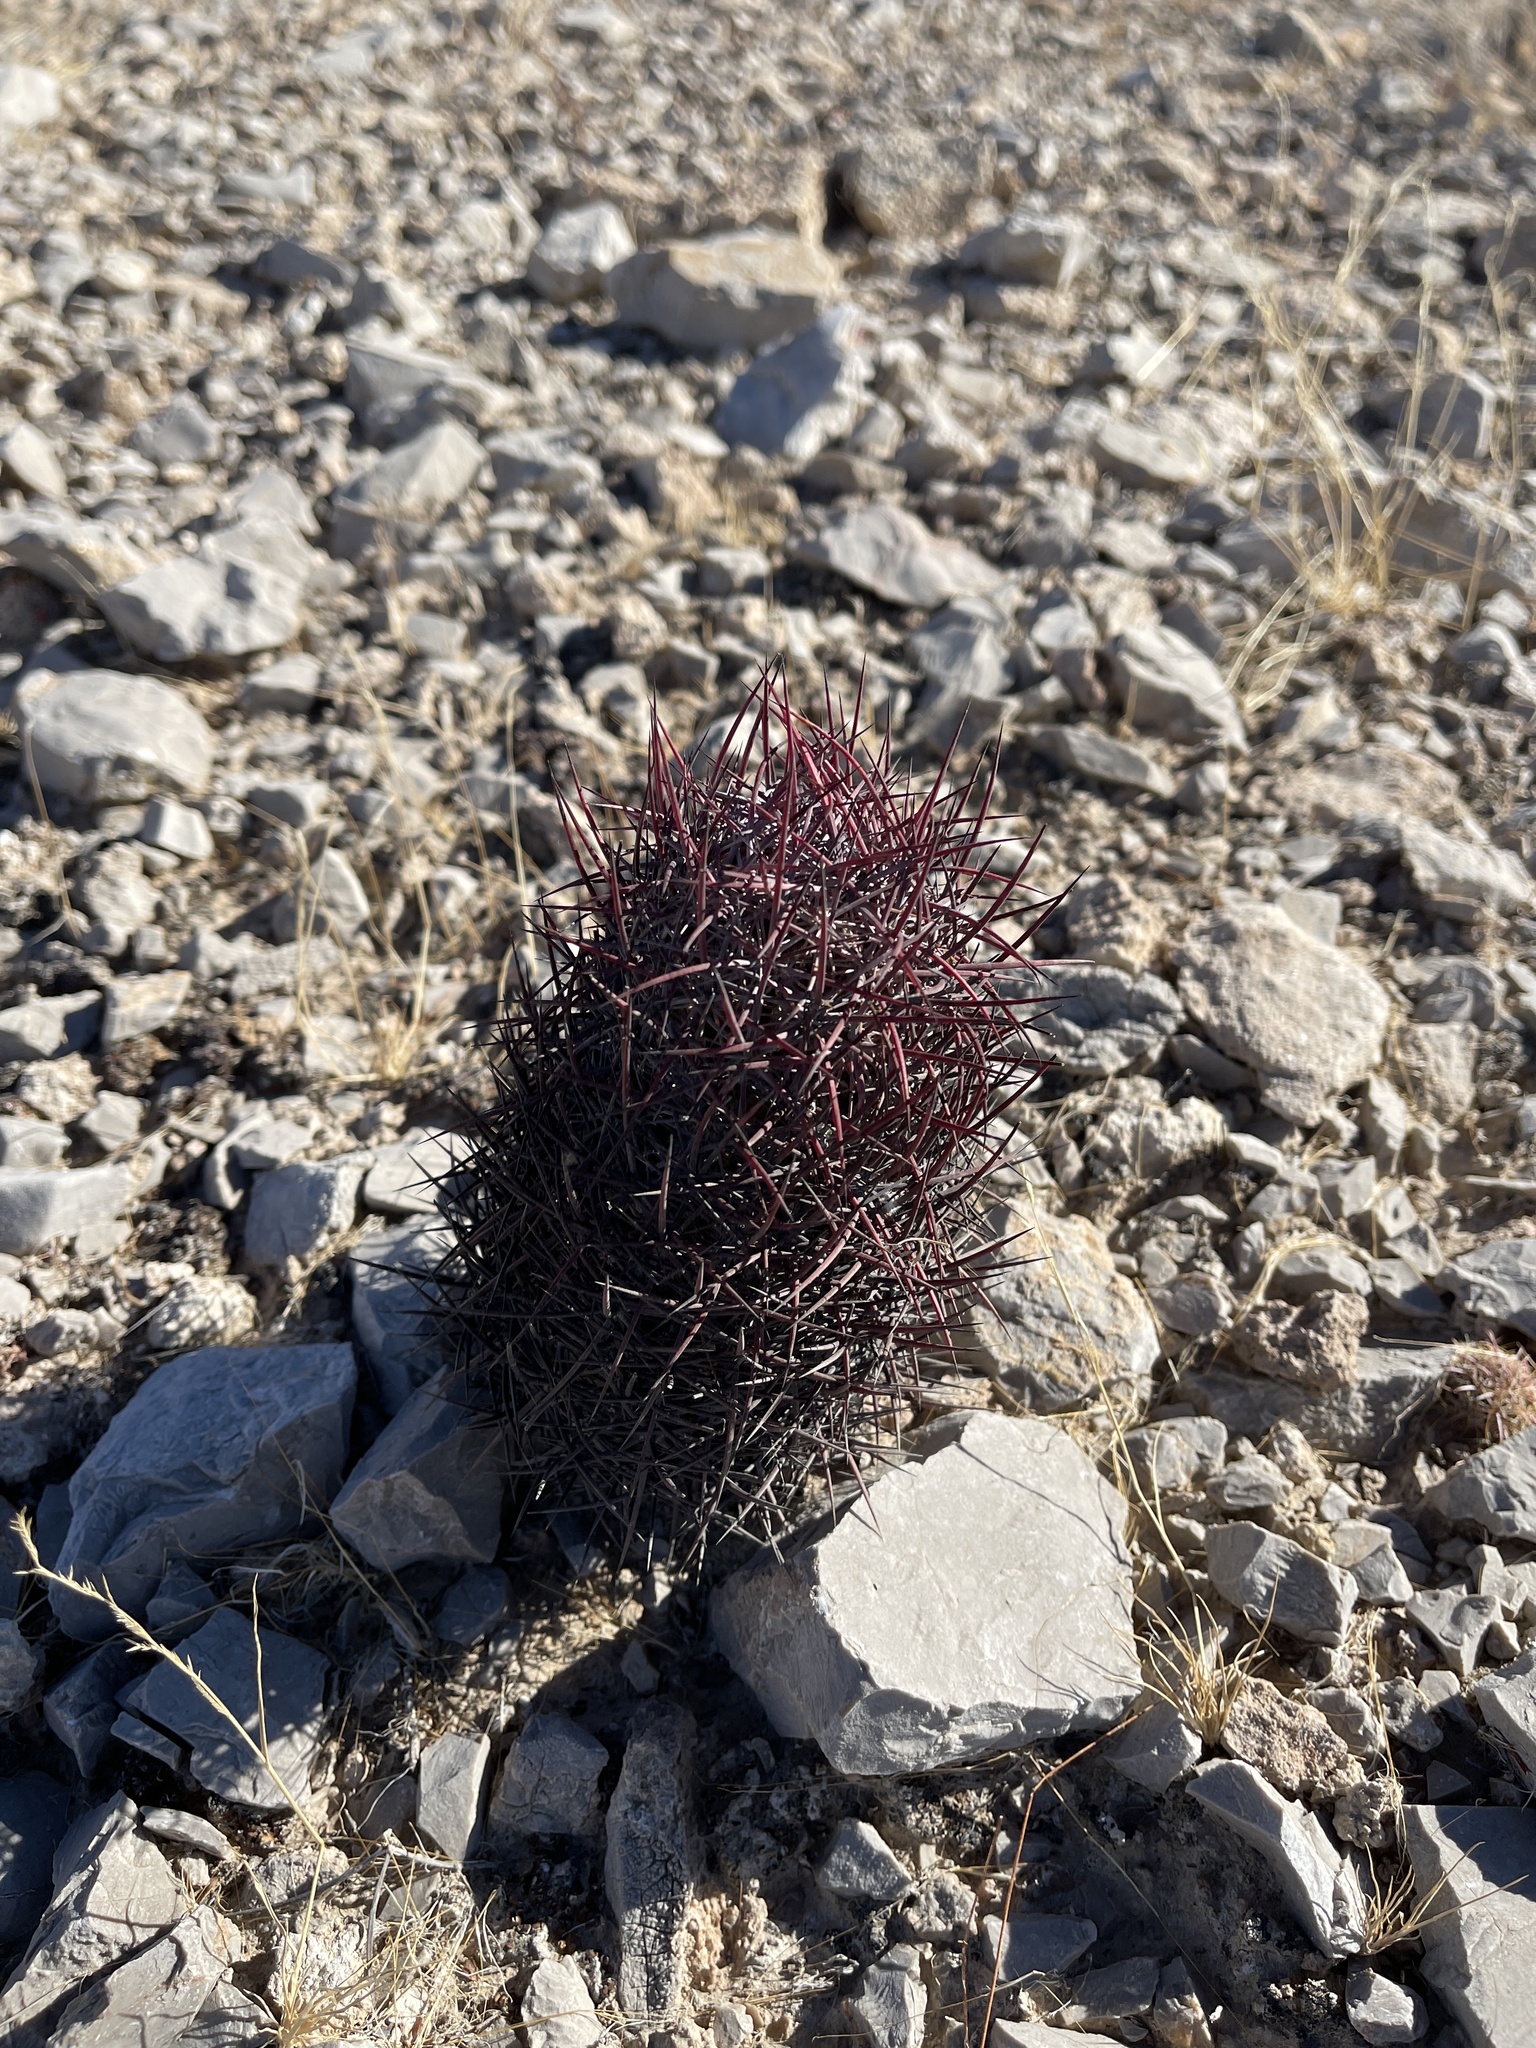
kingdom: Plantae
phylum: Tracheophyta
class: Magnoliopsida
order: Caryophyllales
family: Cactaceae
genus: Sclerocactus
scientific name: Sclerocactus johnsonii
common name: Eight-spine fishhook cactus
